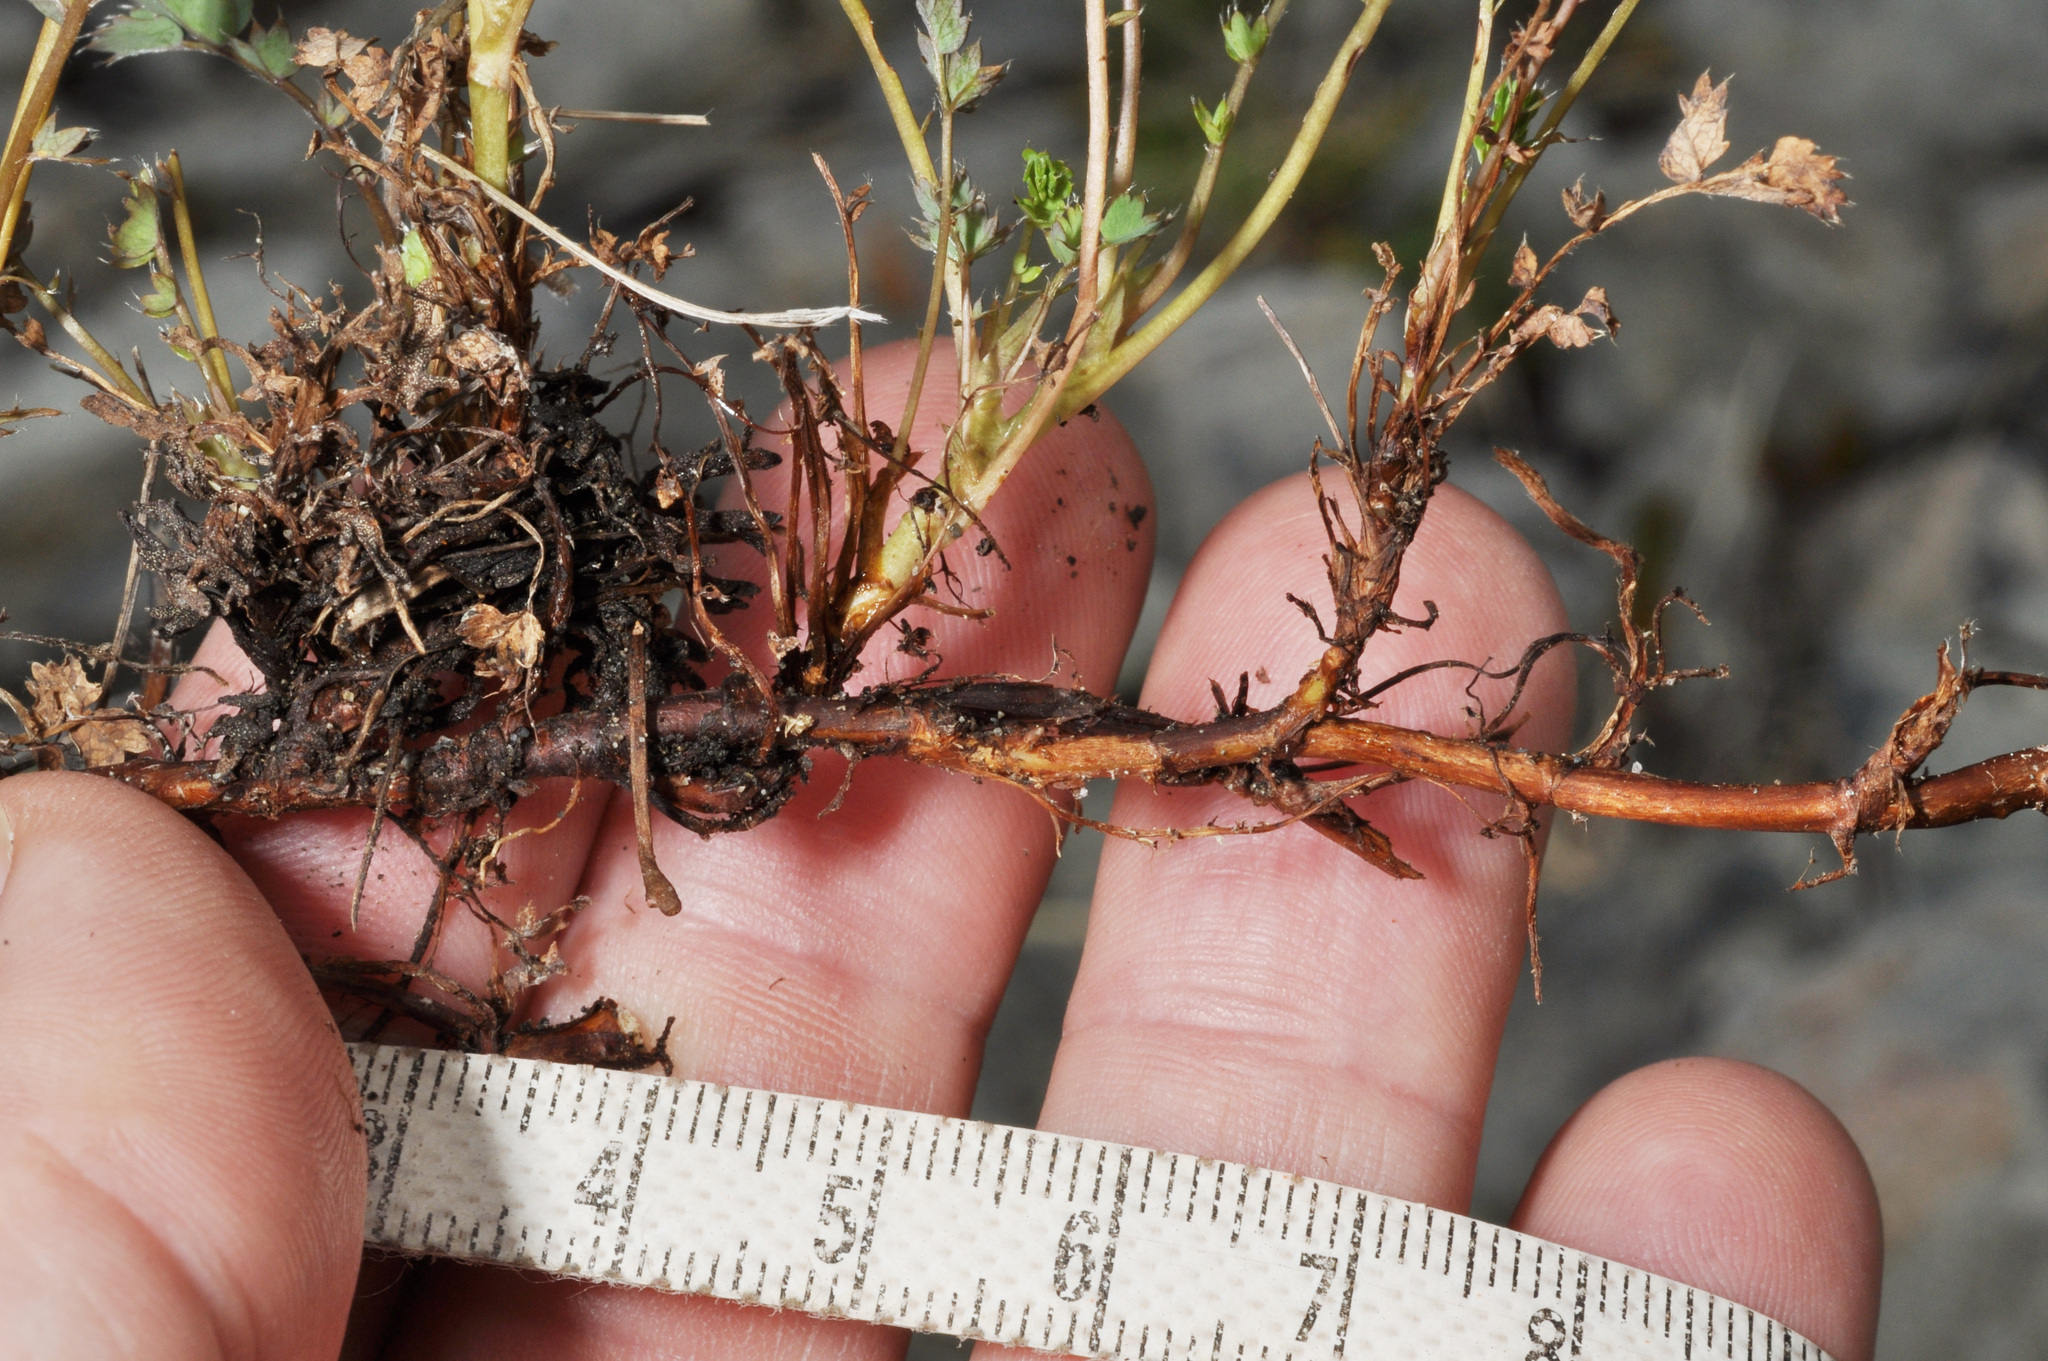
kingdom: Plantae
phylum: Tracheophyta
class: Magnoliopsida
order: Rosales
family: Rosaceae
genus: Acaena
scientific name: Acaena fissistipula
